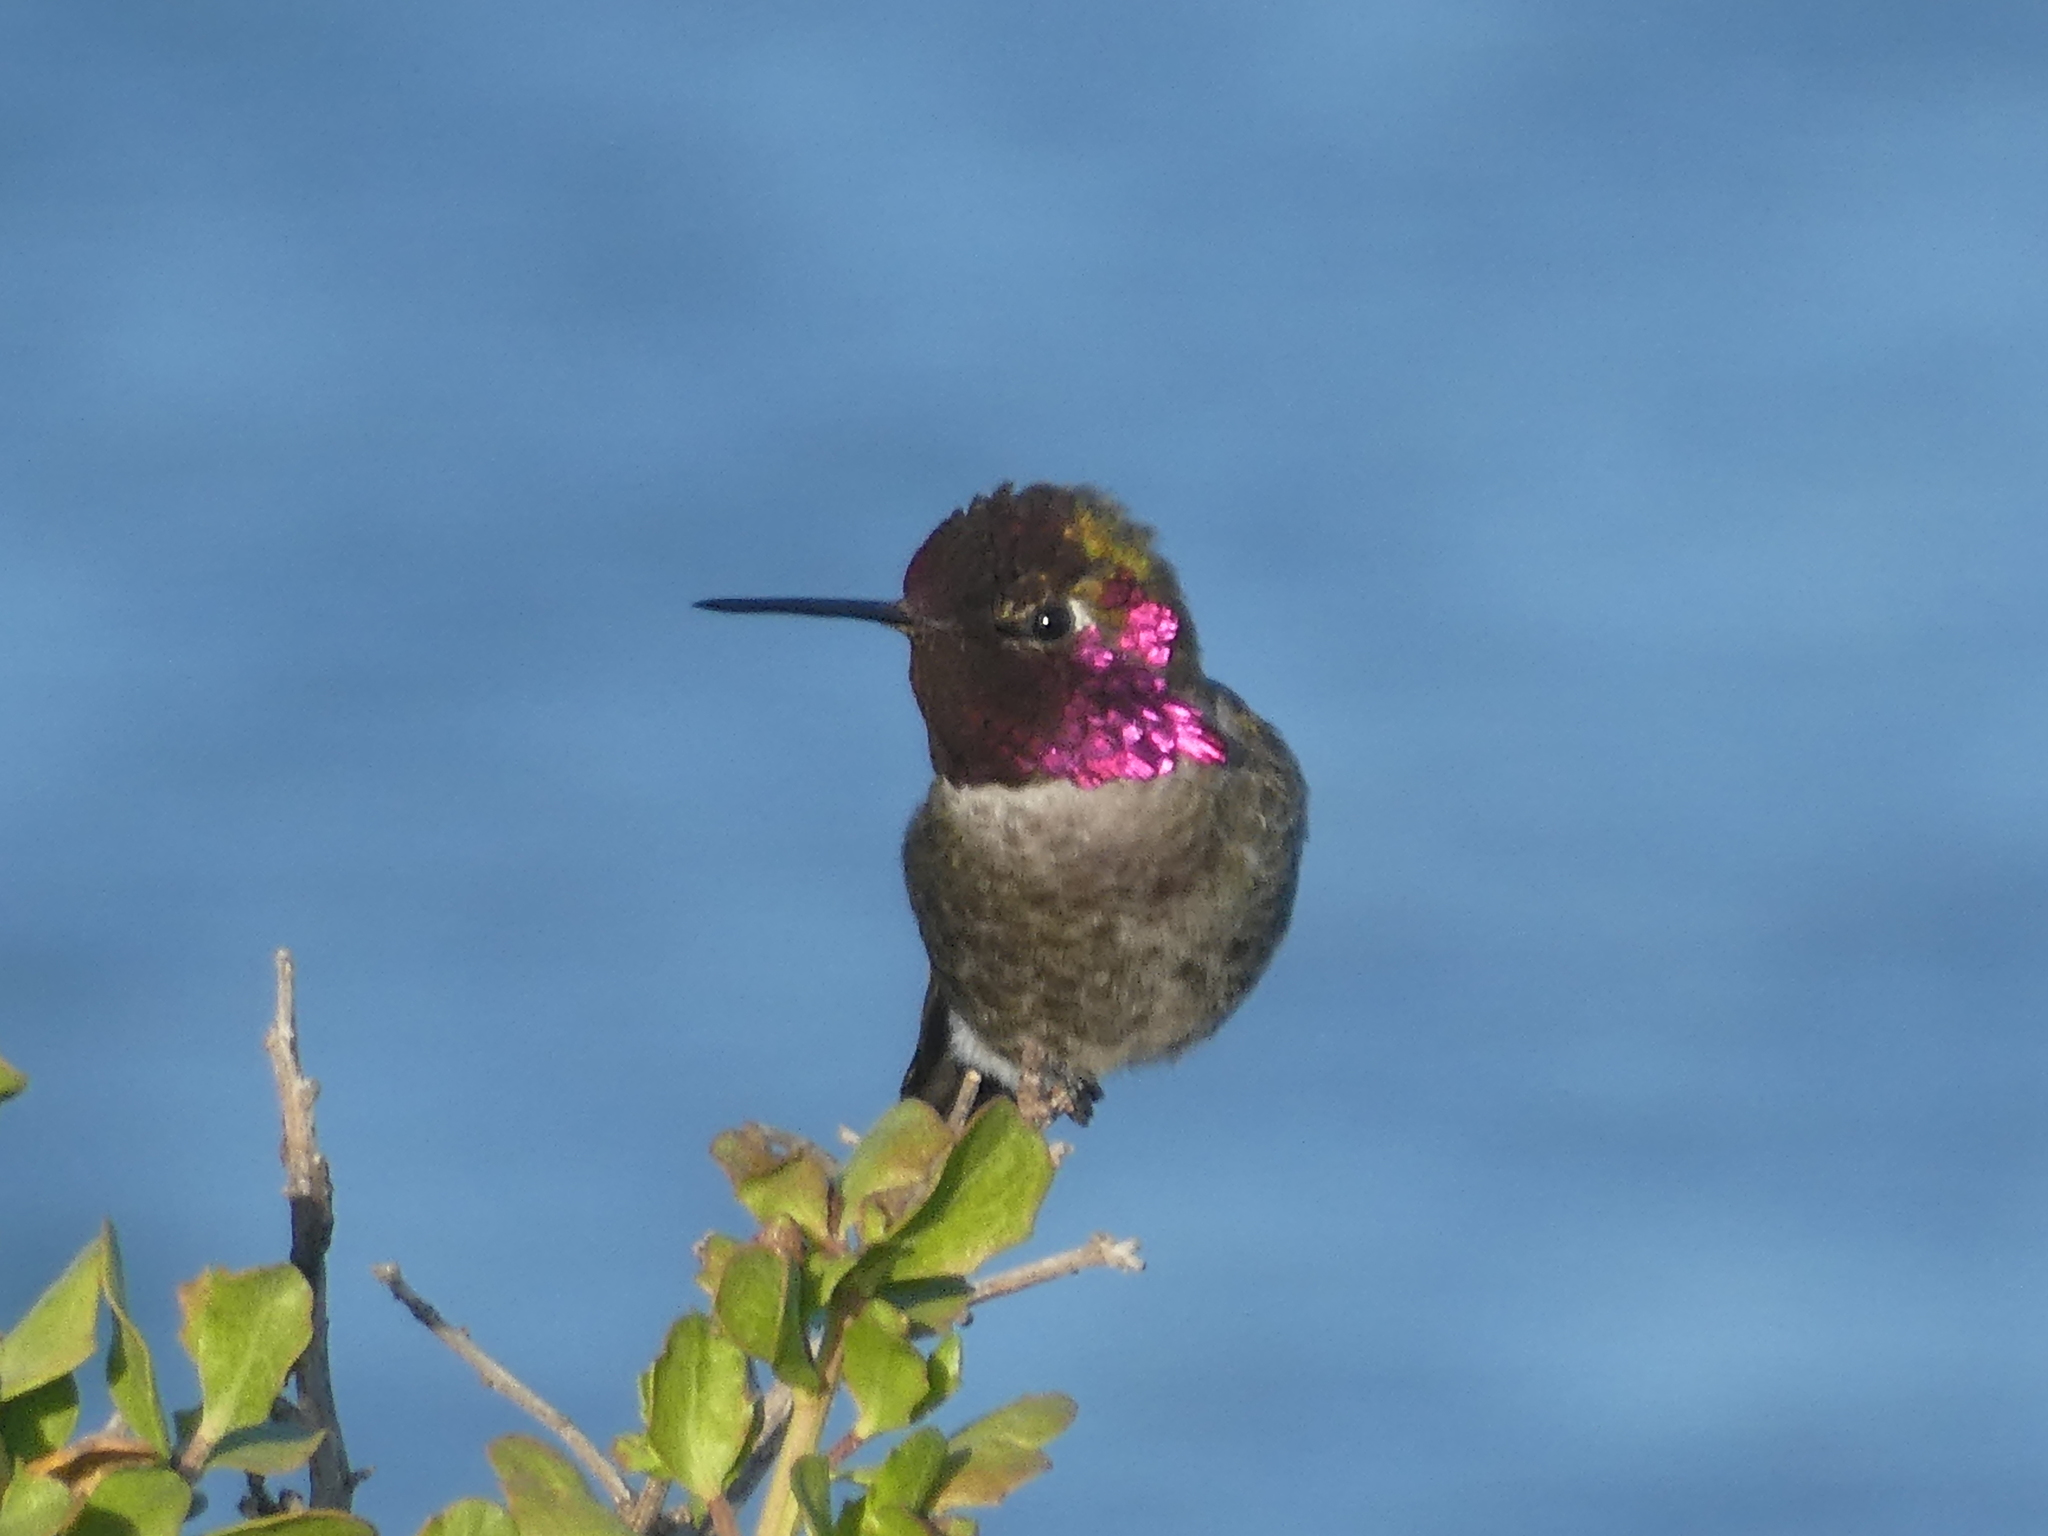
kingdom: Animalia
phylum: Chordata
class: Aves
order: Apodiformes
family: Trochilidae
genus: Calypte
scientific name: Calypte anna
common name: Anna's hummingbird
